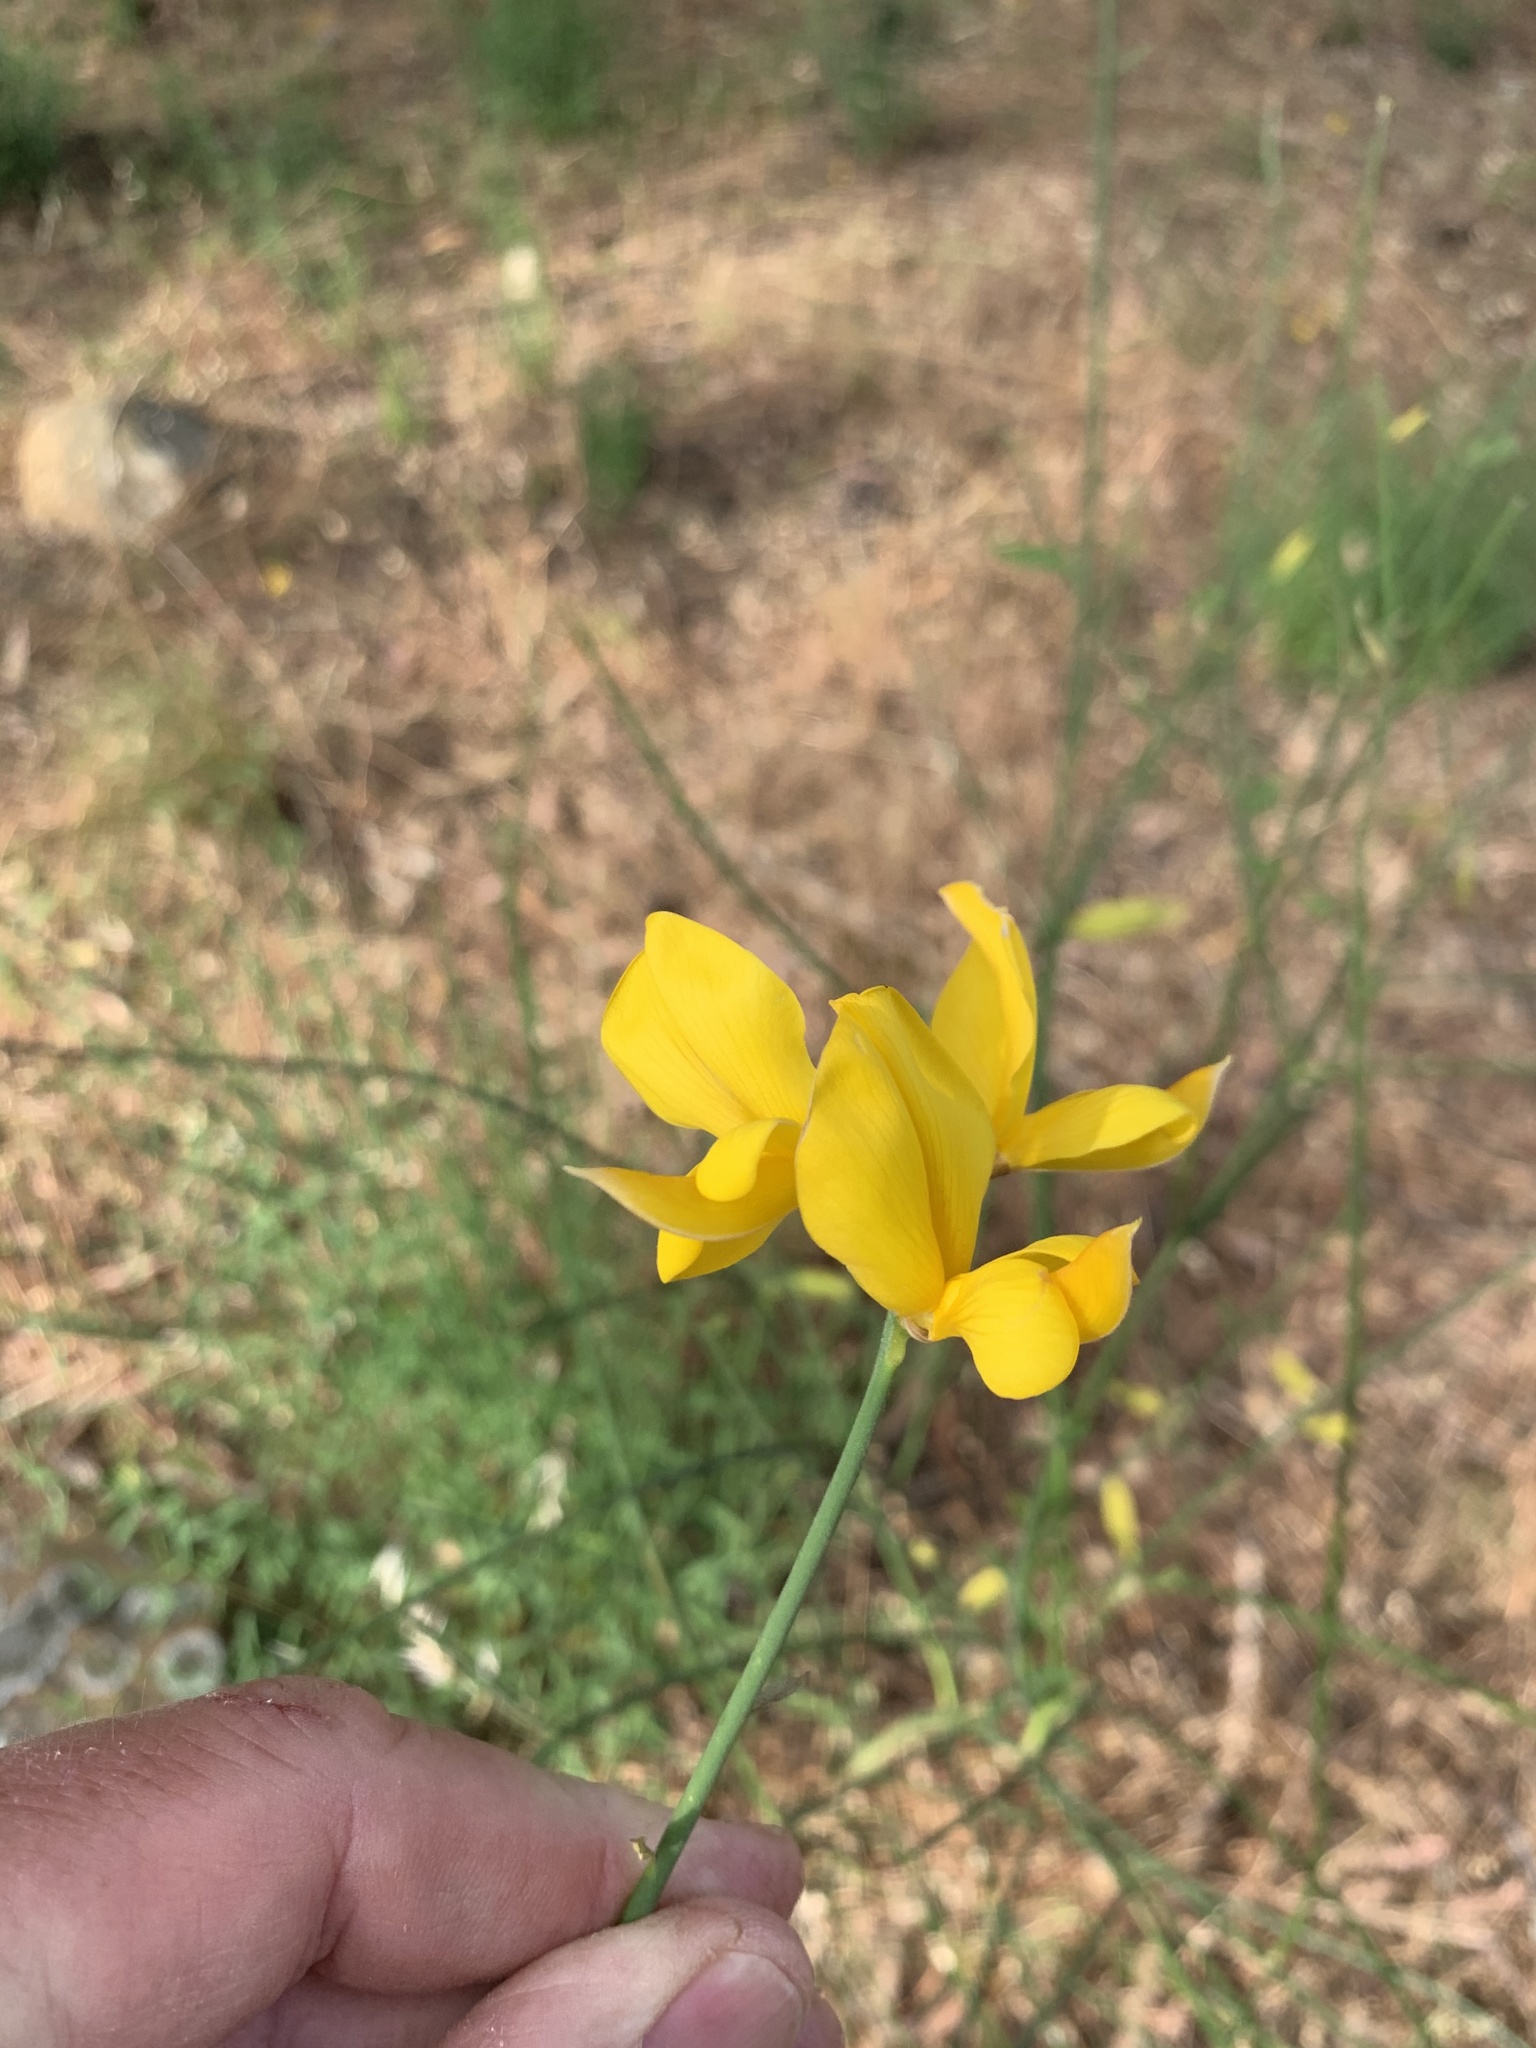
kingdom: Plantae
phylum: Tracheophyta
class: Magnoliopsida
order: Fabales
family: Fabaceae
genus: Spartium
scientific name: Spartium junceum
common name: Spanish broom
